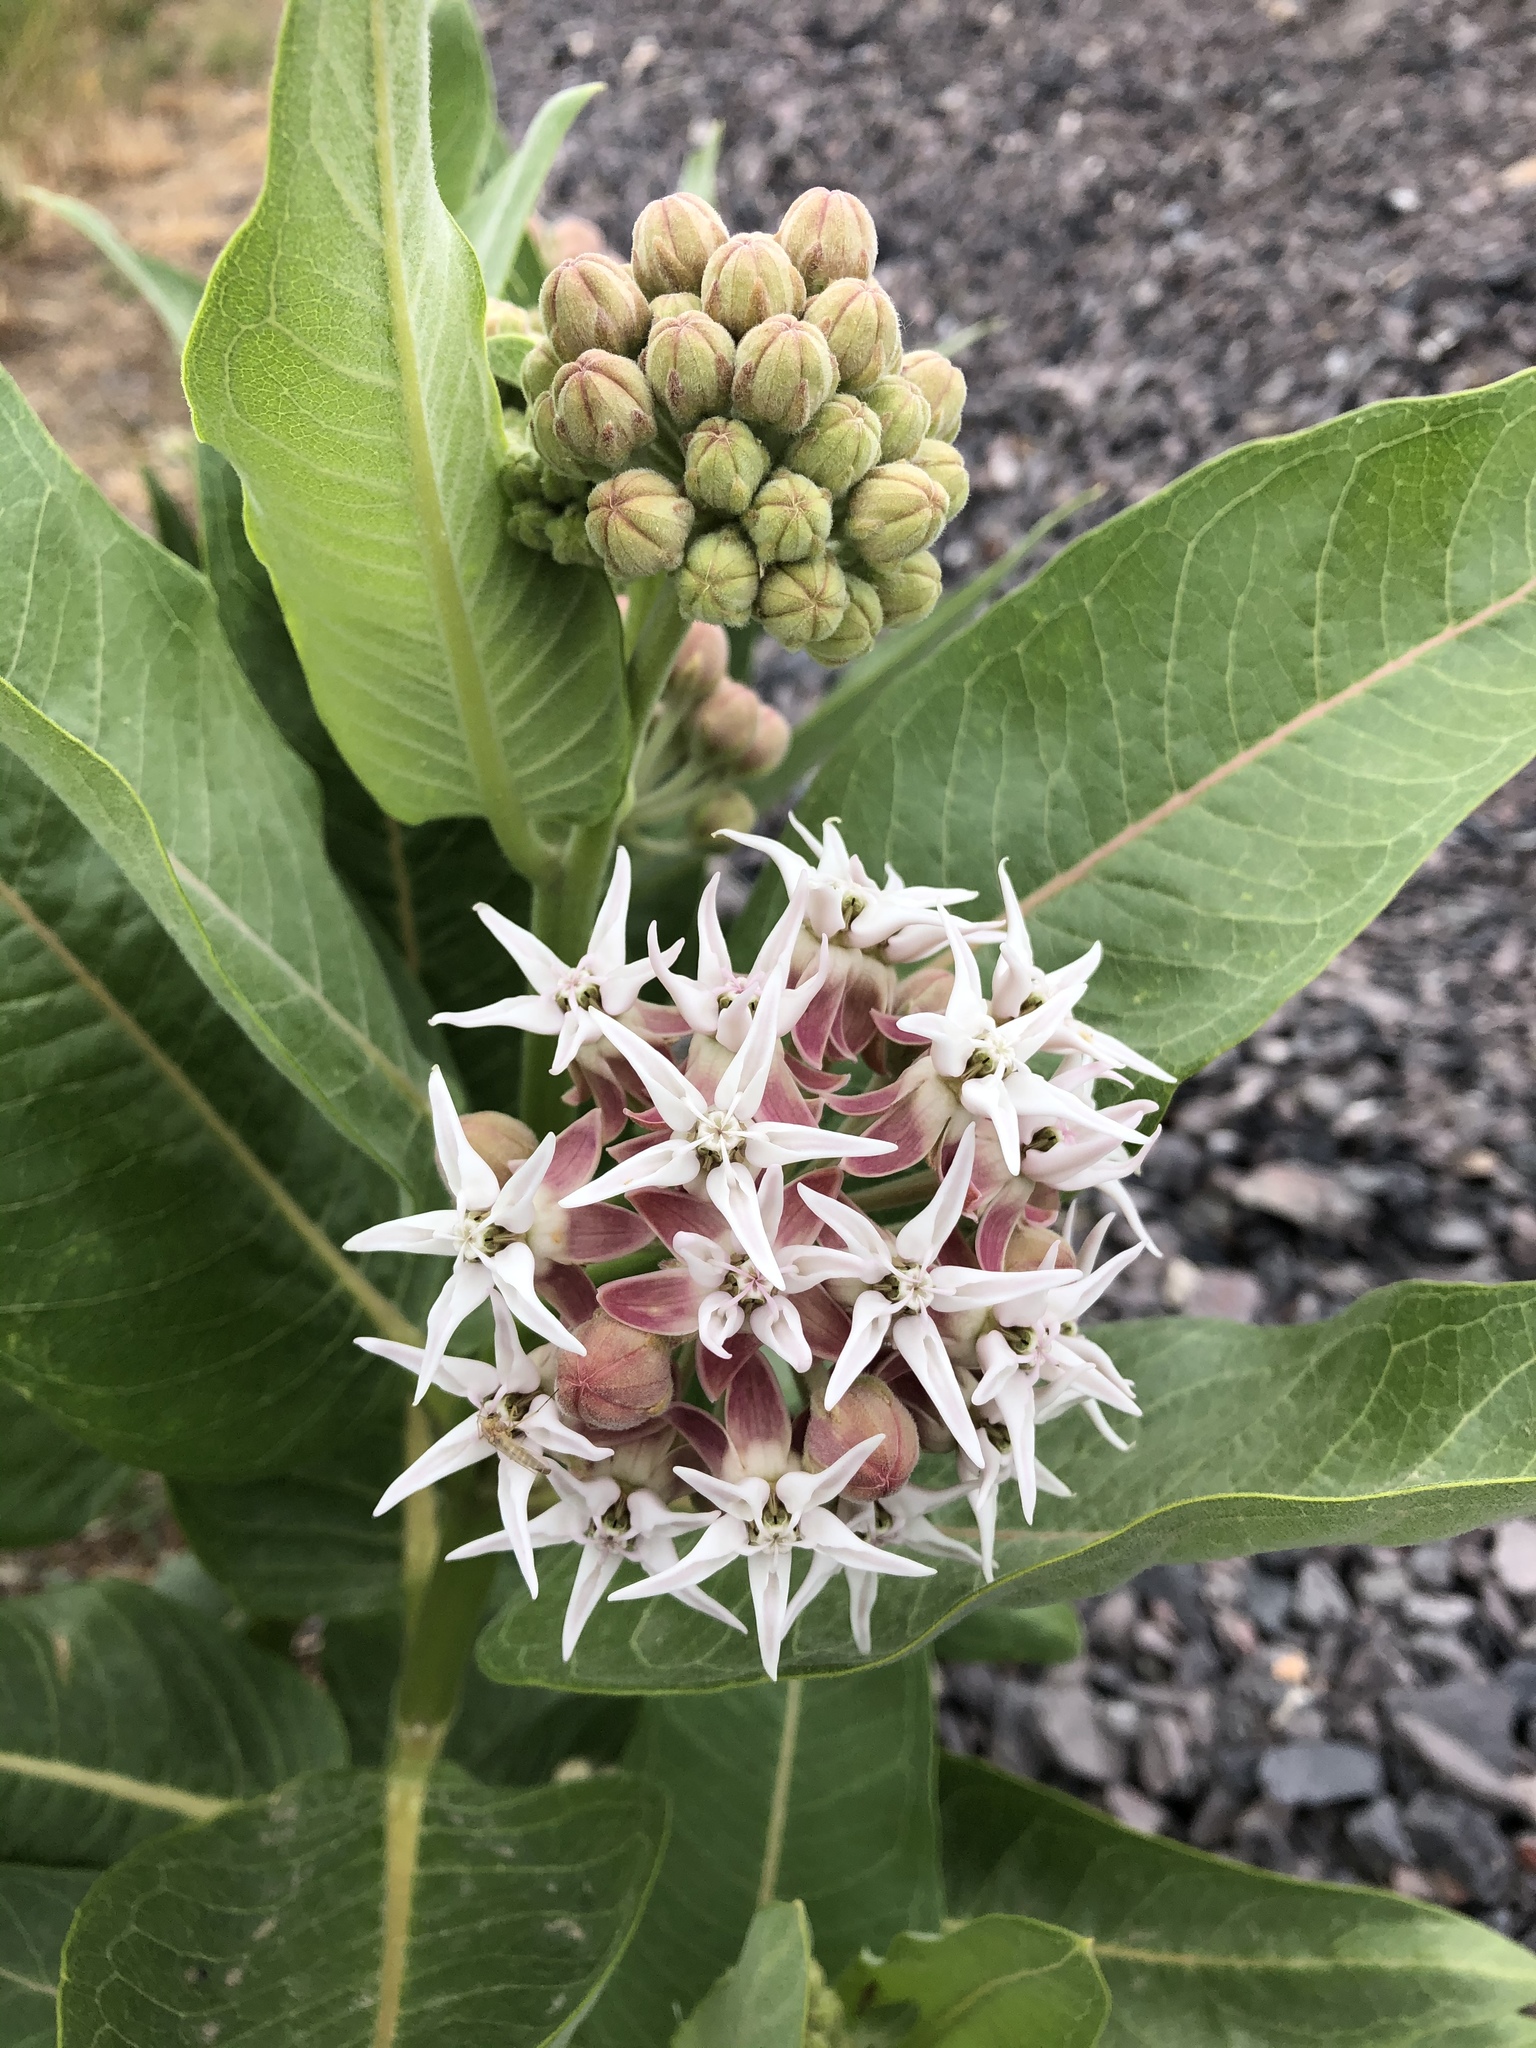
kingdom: Plantae
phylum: Tracheophyta
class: Magnoliopsida
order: Gentianales
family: Apocynaceae
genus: Asclepias
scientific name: Asclepias speciosa
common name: Showy milkweed
